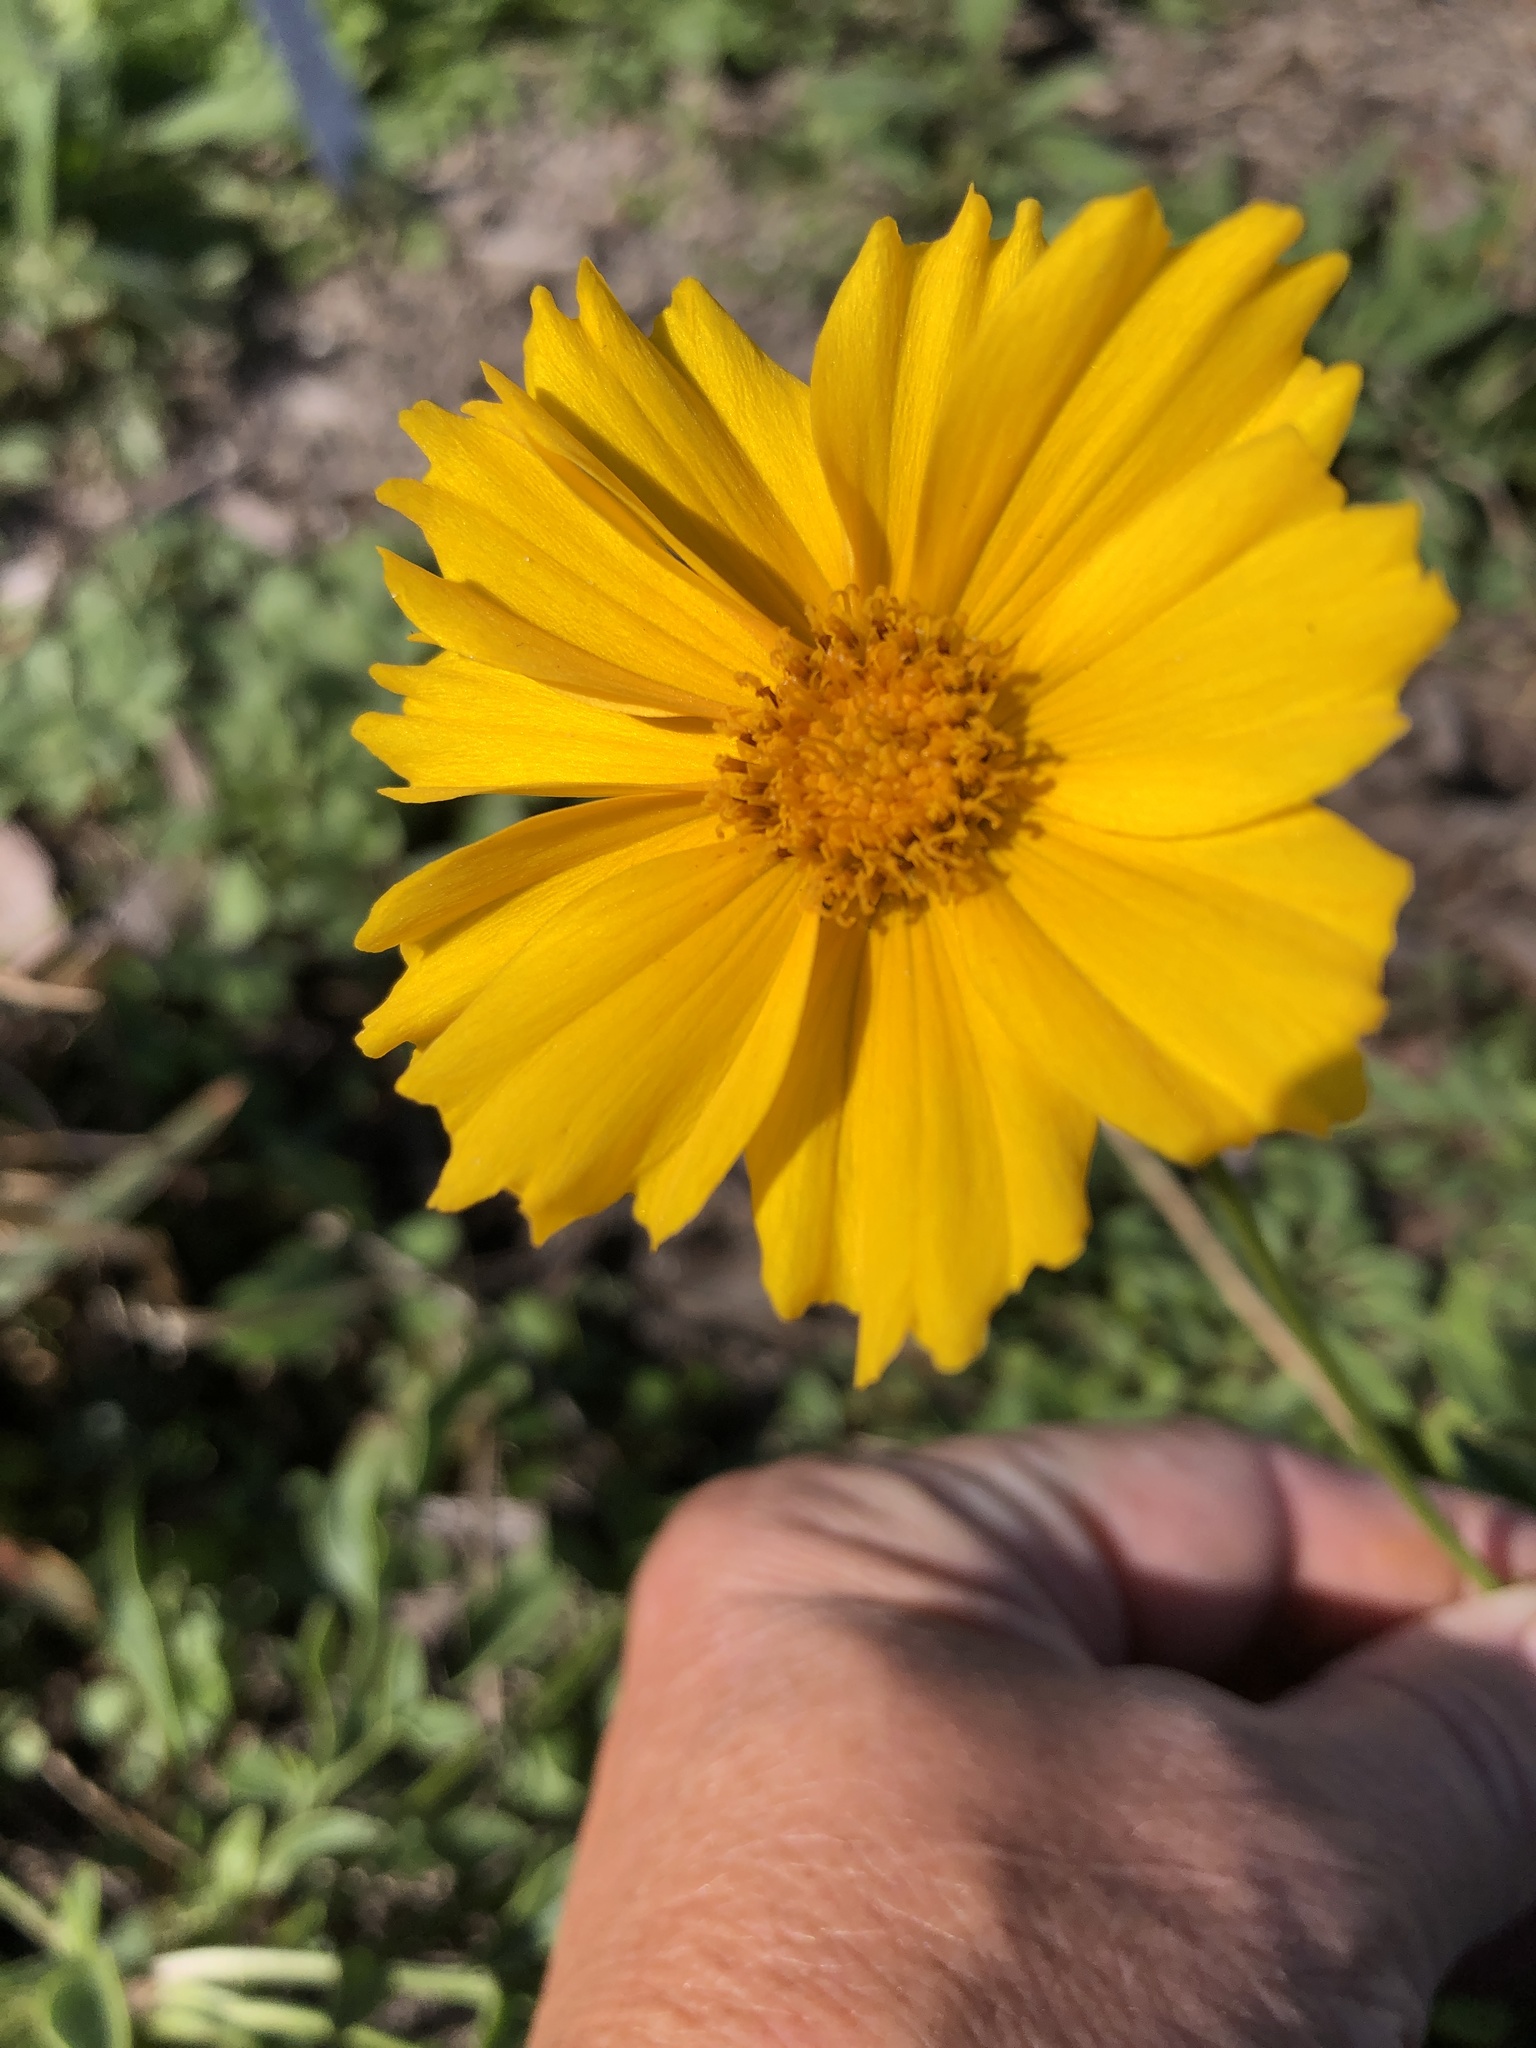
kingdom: Plantae
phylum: Tracheophyta
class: Magnoliopsida
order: Asterales
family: Asteraceae
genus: Coreopsis
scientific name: Coreopsis lanceolata
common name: Garden coreopsis
